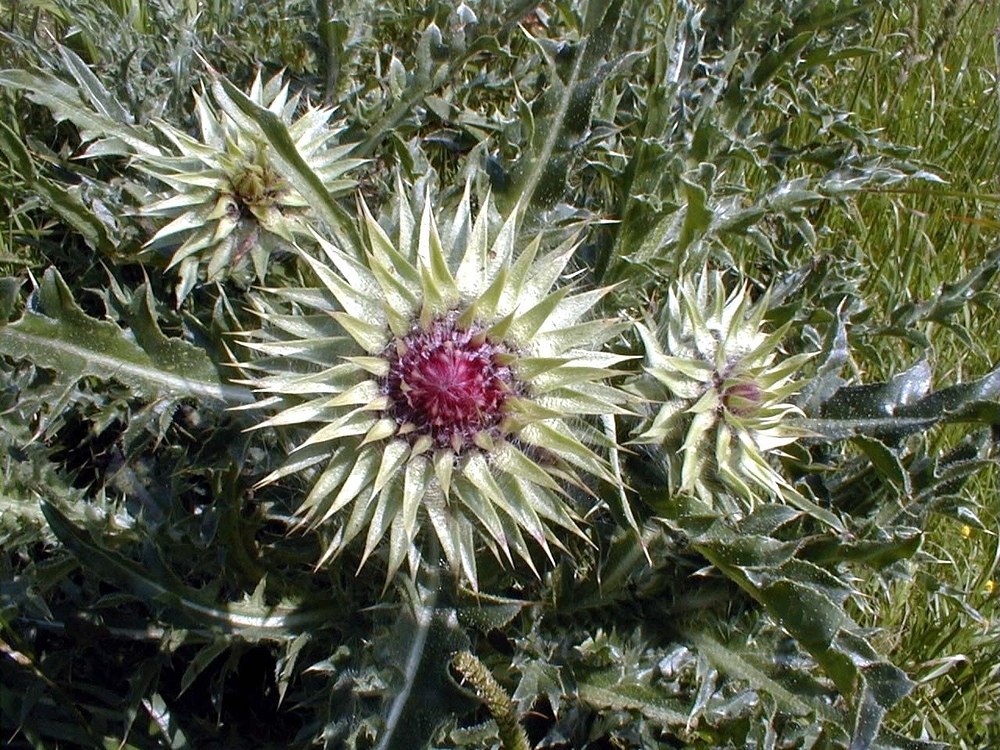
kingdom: Plantae
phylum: Tracheophyta
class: Magnoliopsida
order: Asterales
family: Asteraceae
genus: Carduus
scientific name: Carduus nutans
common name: Musk thistle
